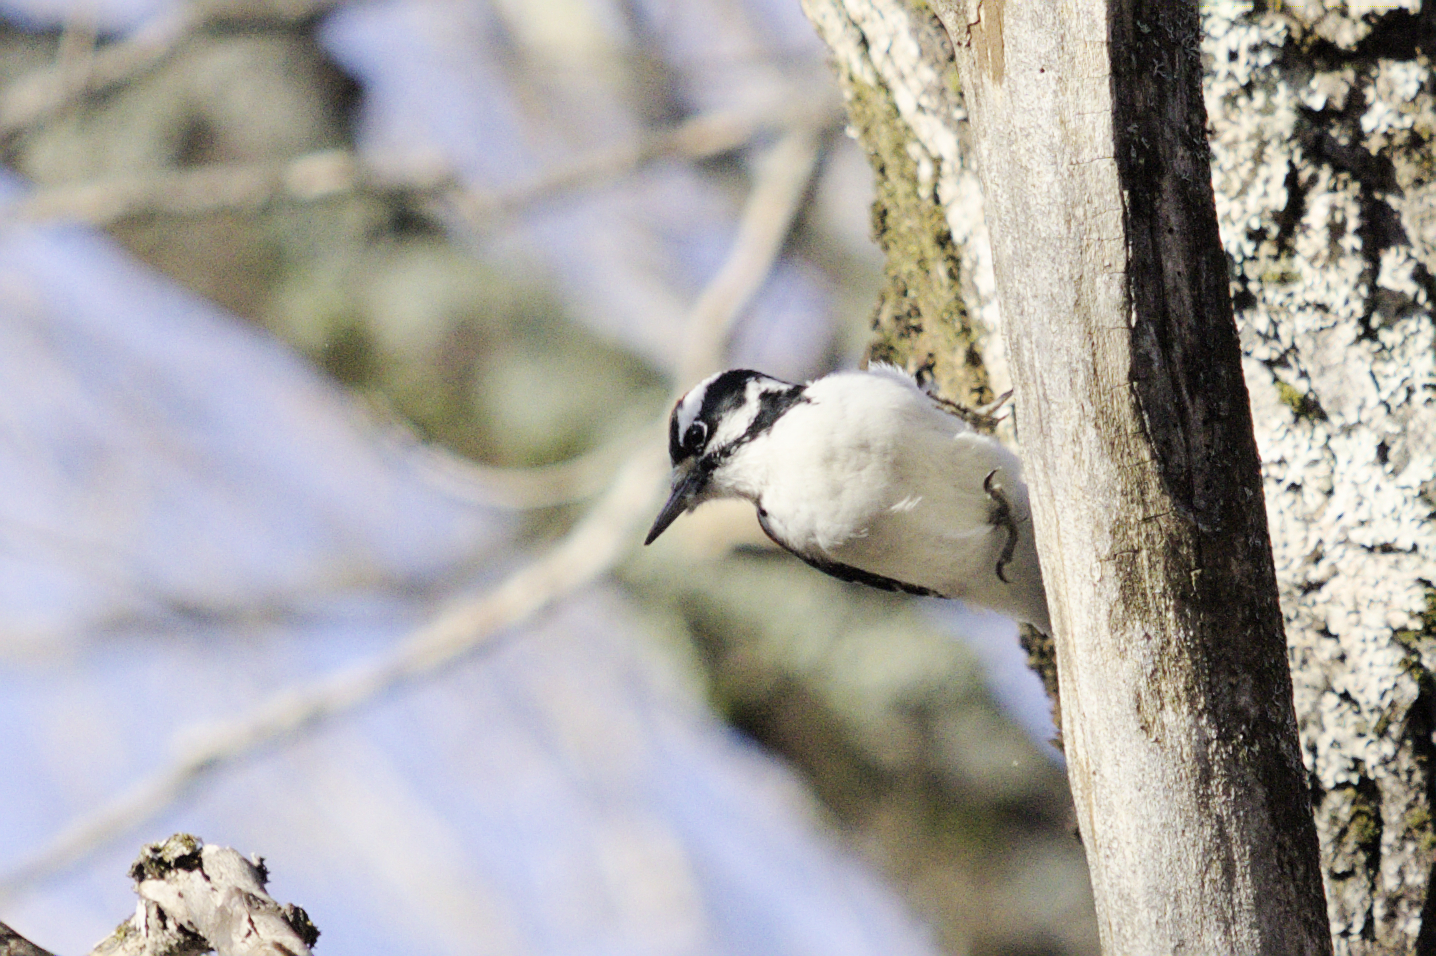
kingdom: Animalia
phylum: Chordata
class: Aves
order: Piciformes
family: Picidae
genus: Leuconotopicus
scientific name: Leuconotopicus villosus
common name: Hairy woodpecker
